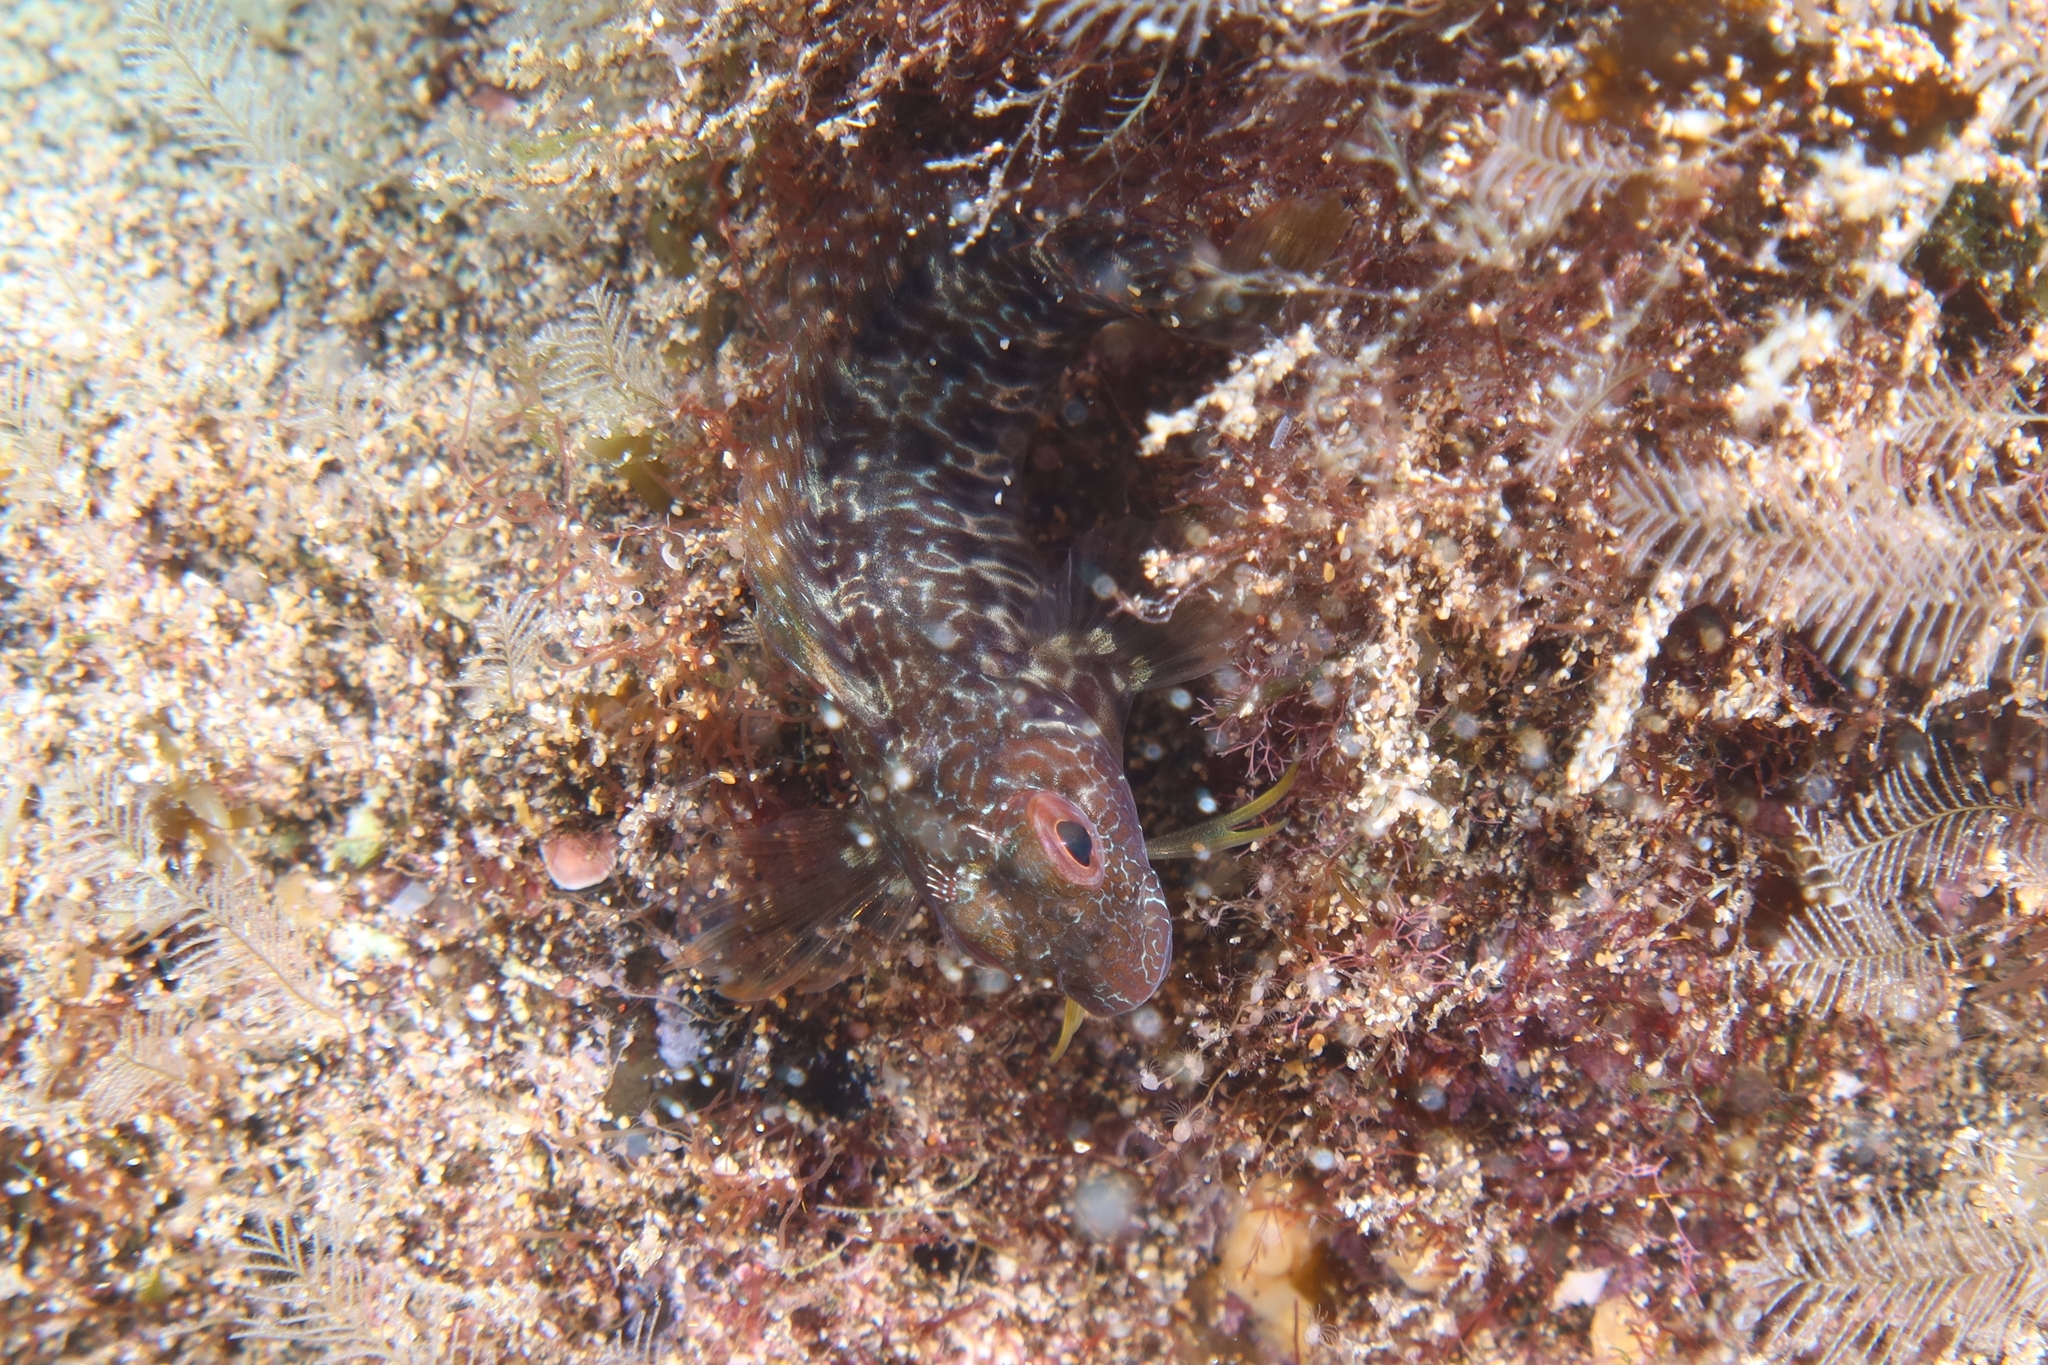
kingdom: Animalia
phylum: Chordata
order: Perciformes
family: Blenniidae
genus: Parablennius
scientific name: Parablennius pilicornis
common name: Ringneck blenny
